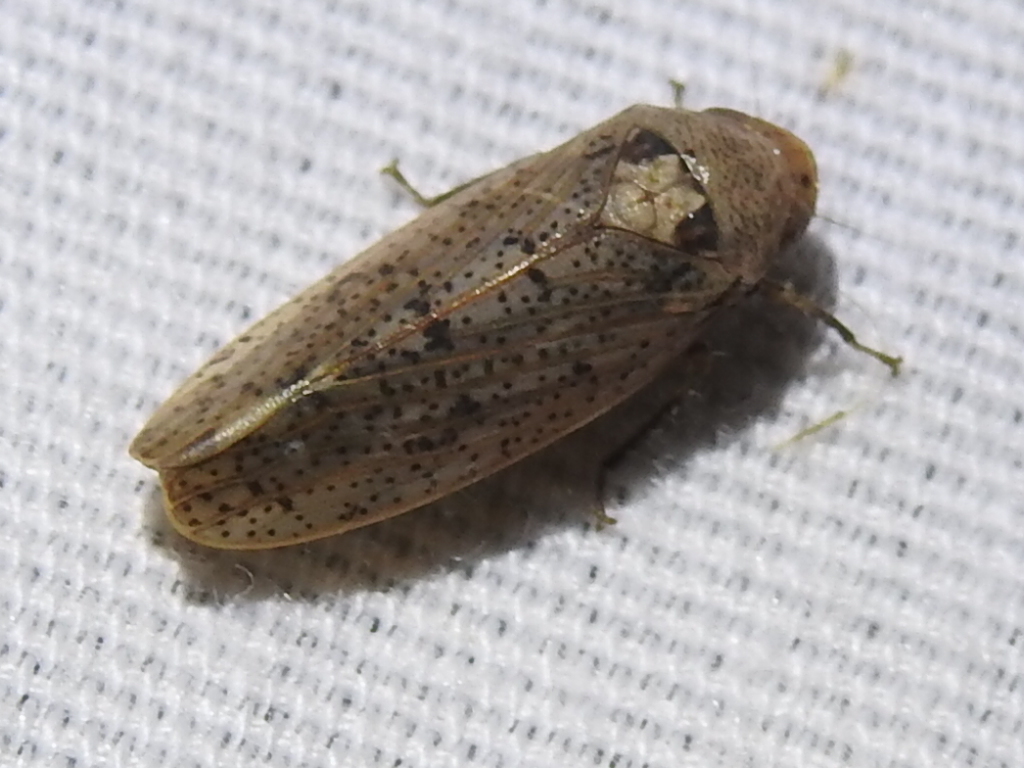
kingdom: Animalia
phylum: Arthropoda
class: Insecta
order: Hemiptera
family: Cicadellidae
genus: Ponana
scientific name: Ponana puncticollis
